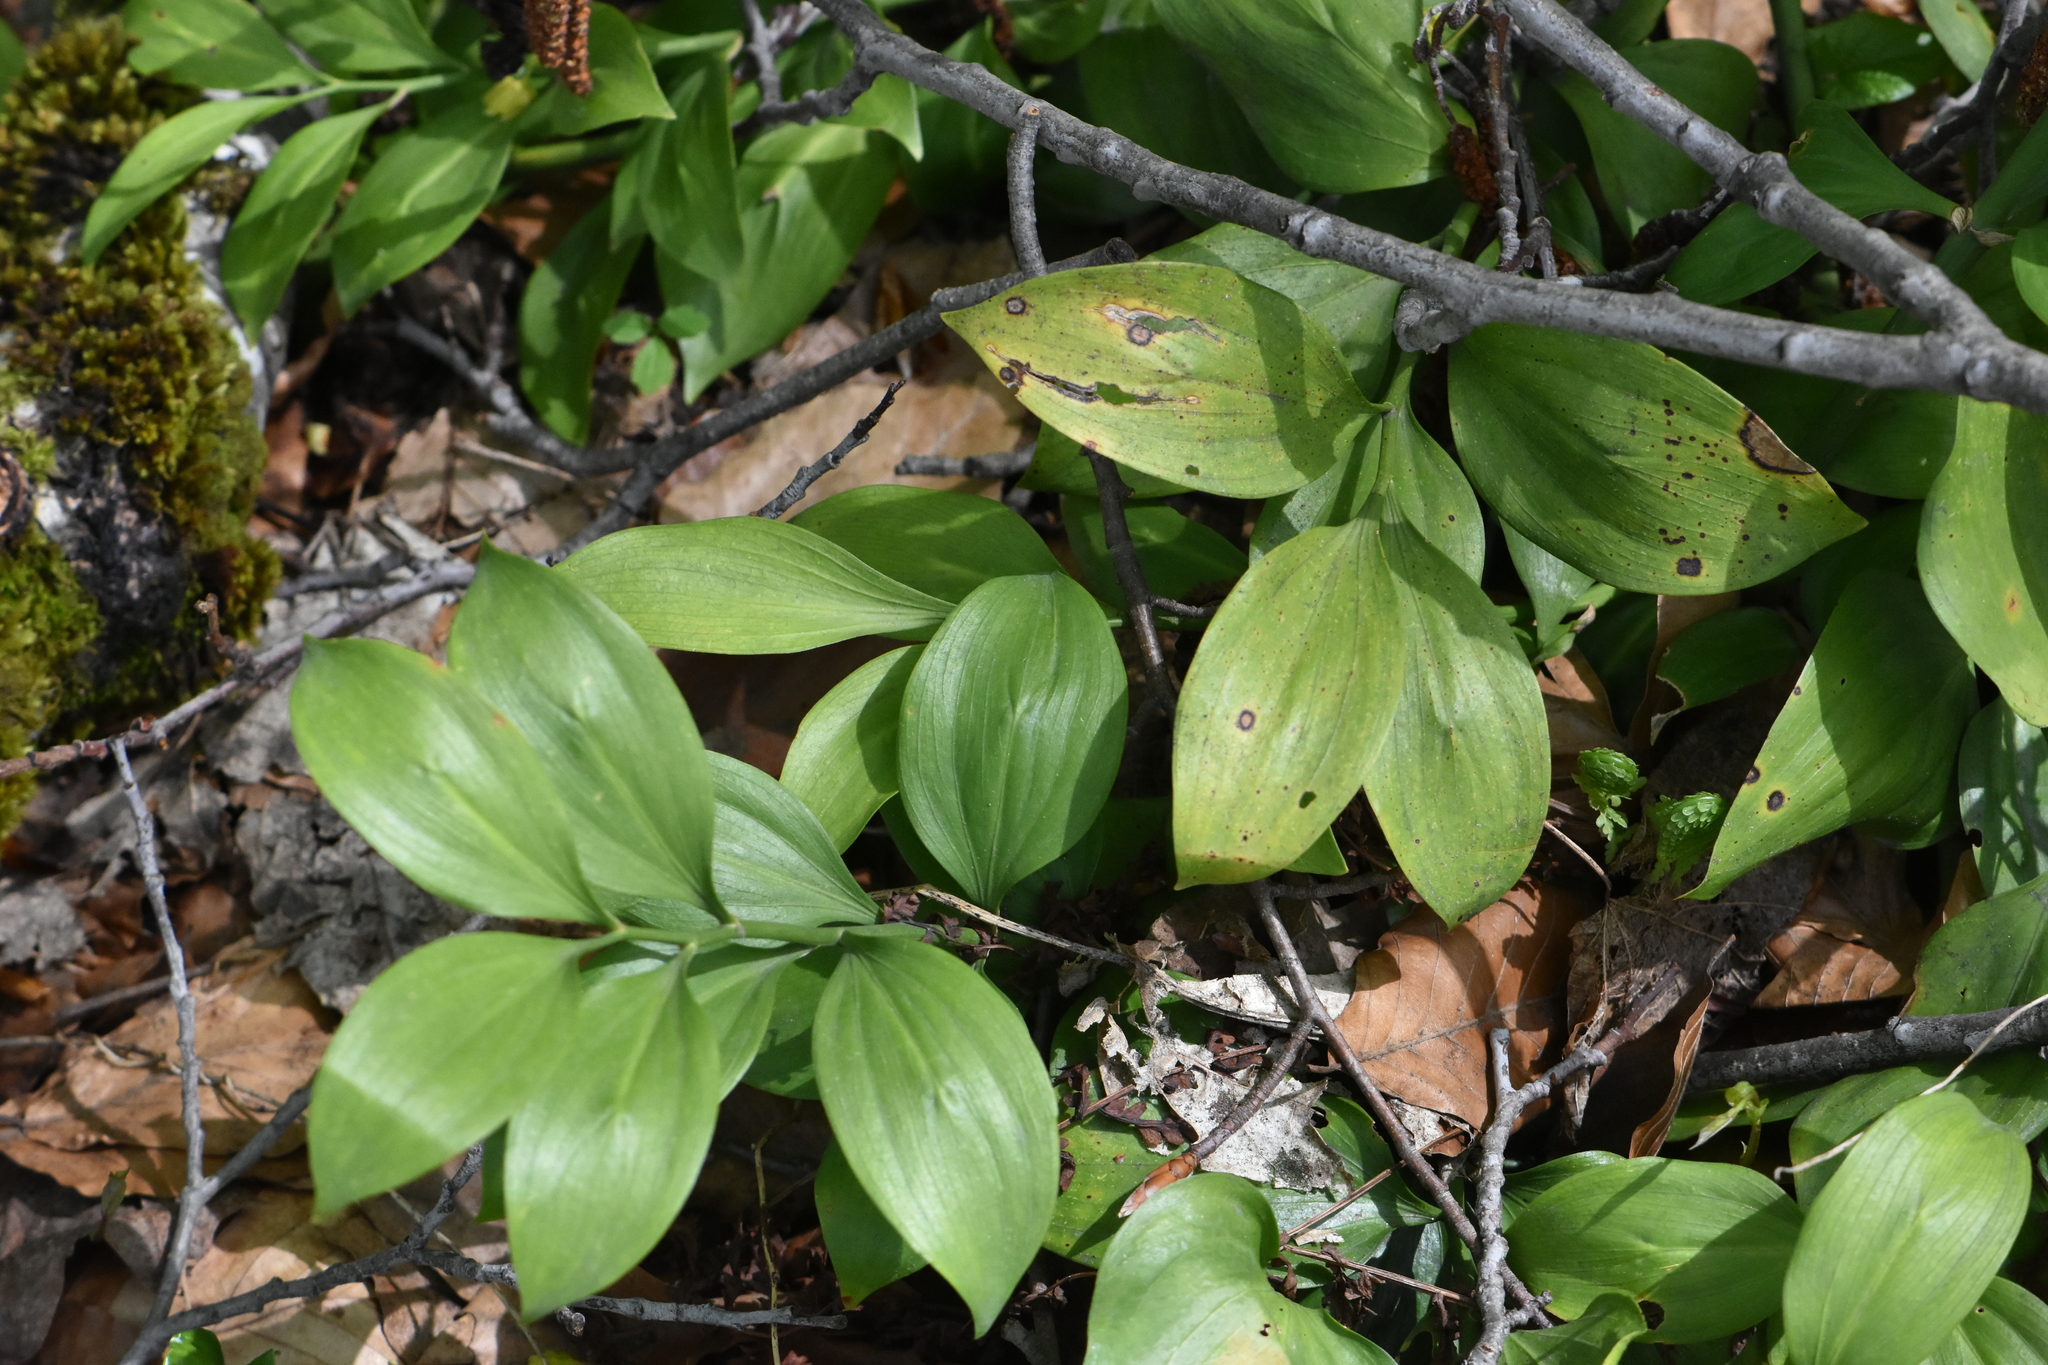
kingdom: Plantae
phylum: Tracheophyta
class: Liliopsida
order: Asparagales
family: Asparagaceae
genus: Ruscus
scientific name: Ruscus colchicus
